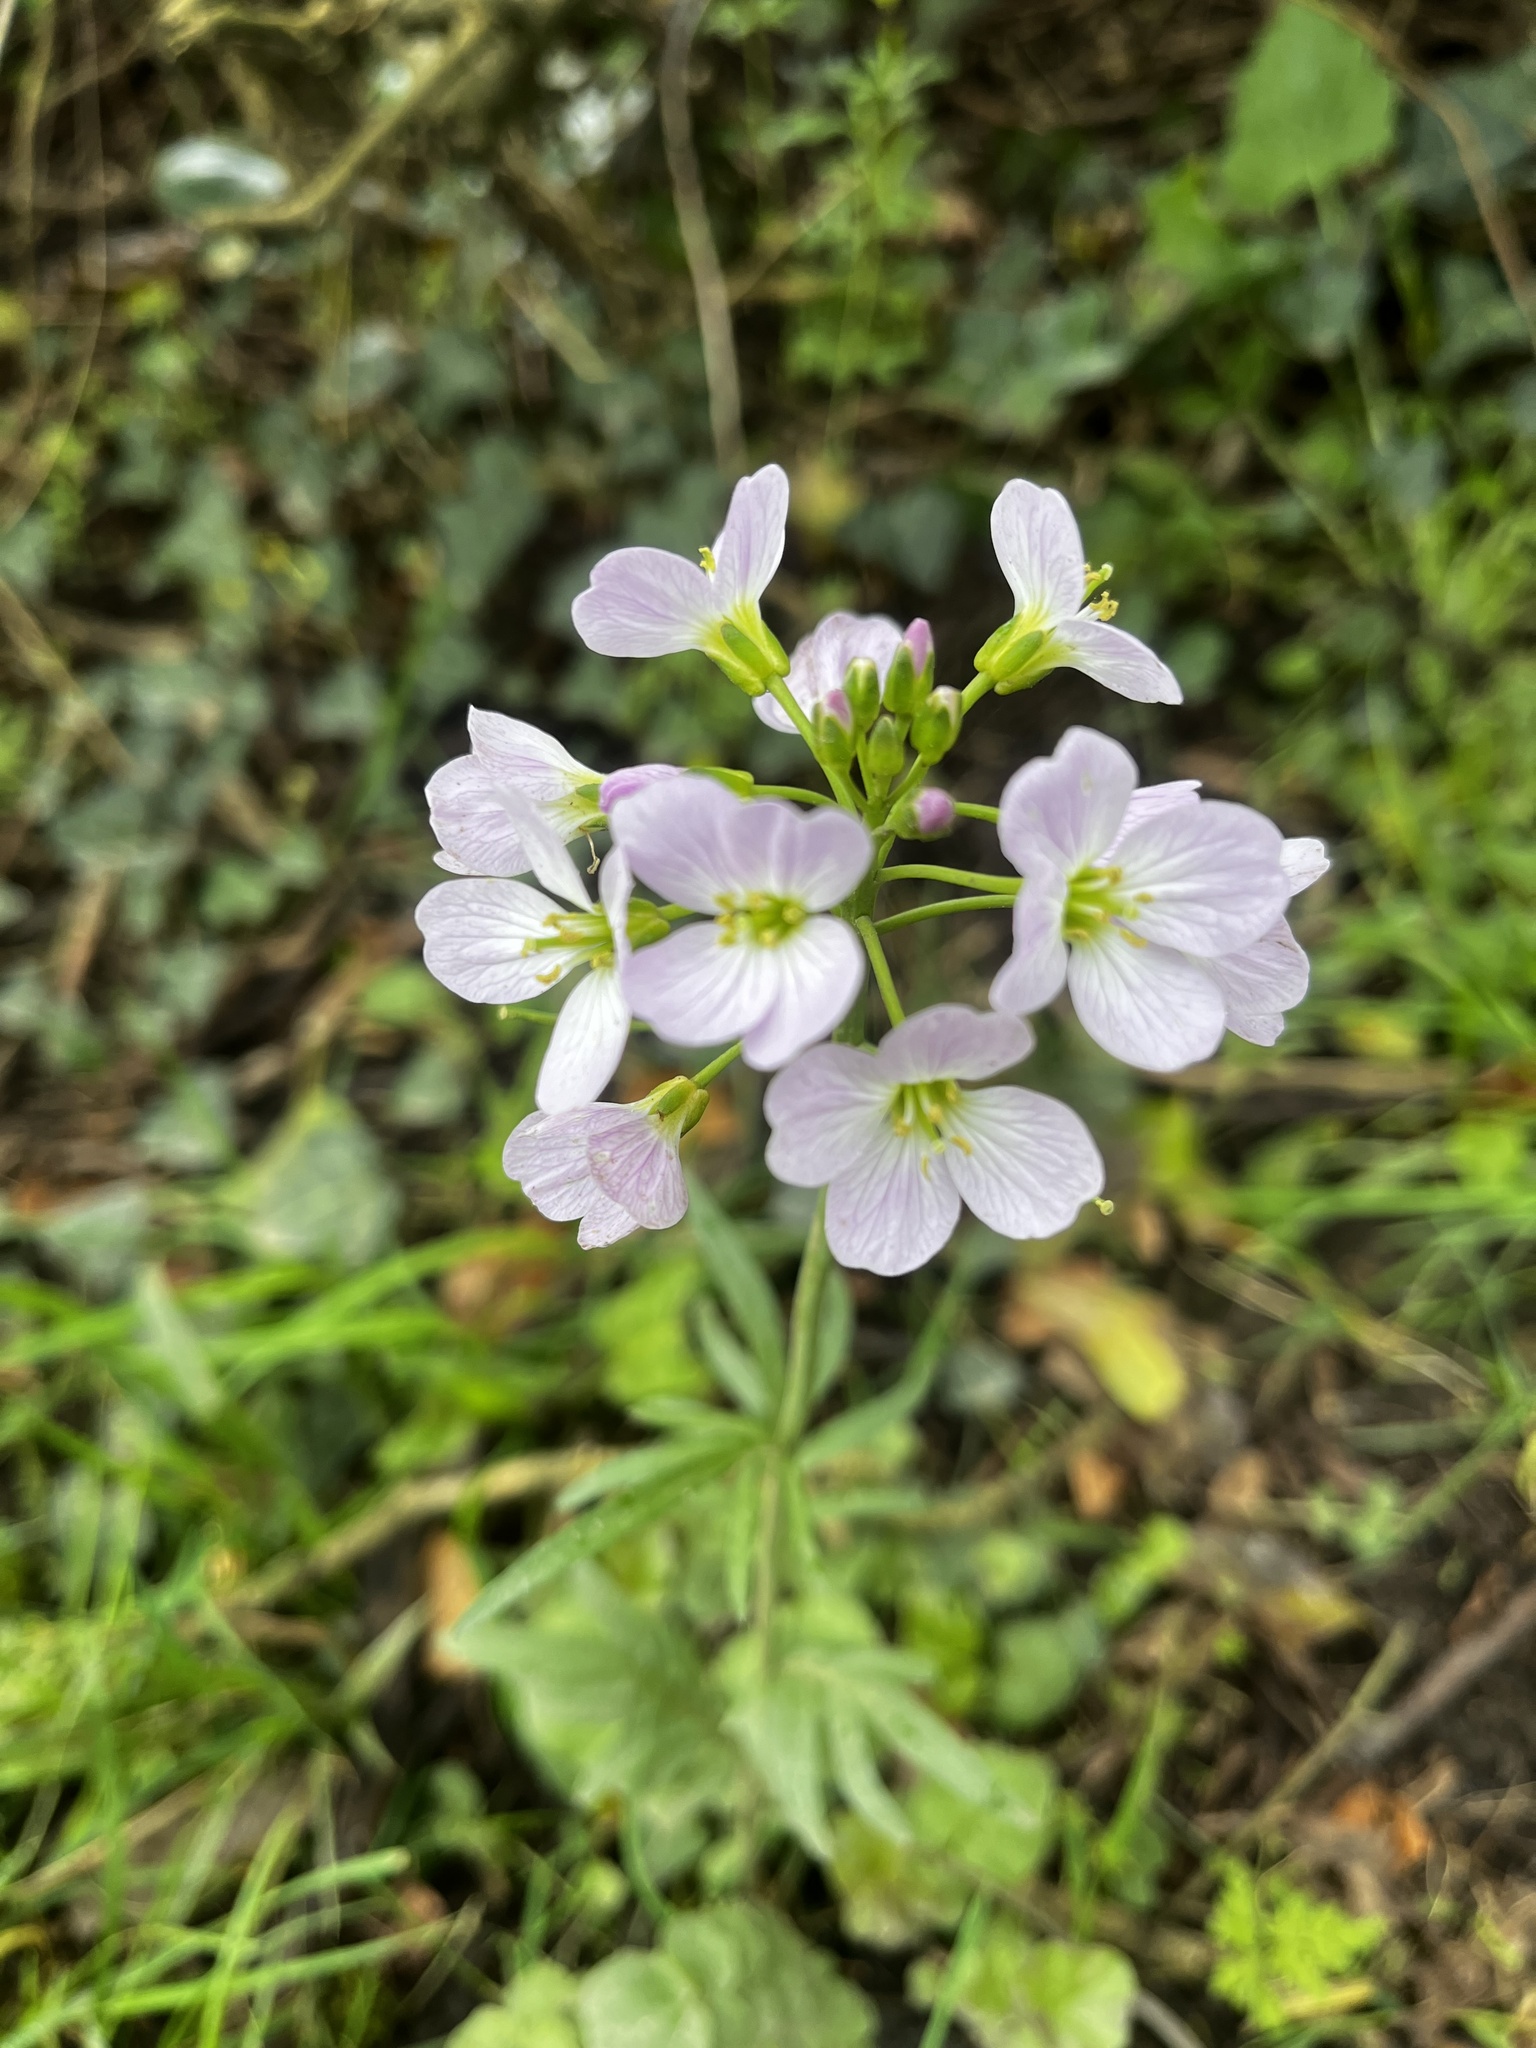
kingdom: Plantae
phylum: Tracheophyta
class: Magnoliopsida
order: Brassicales
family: Brassicaceae
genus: Cardamine
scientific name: Cardamine pratensis
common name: Cuckoo flower
